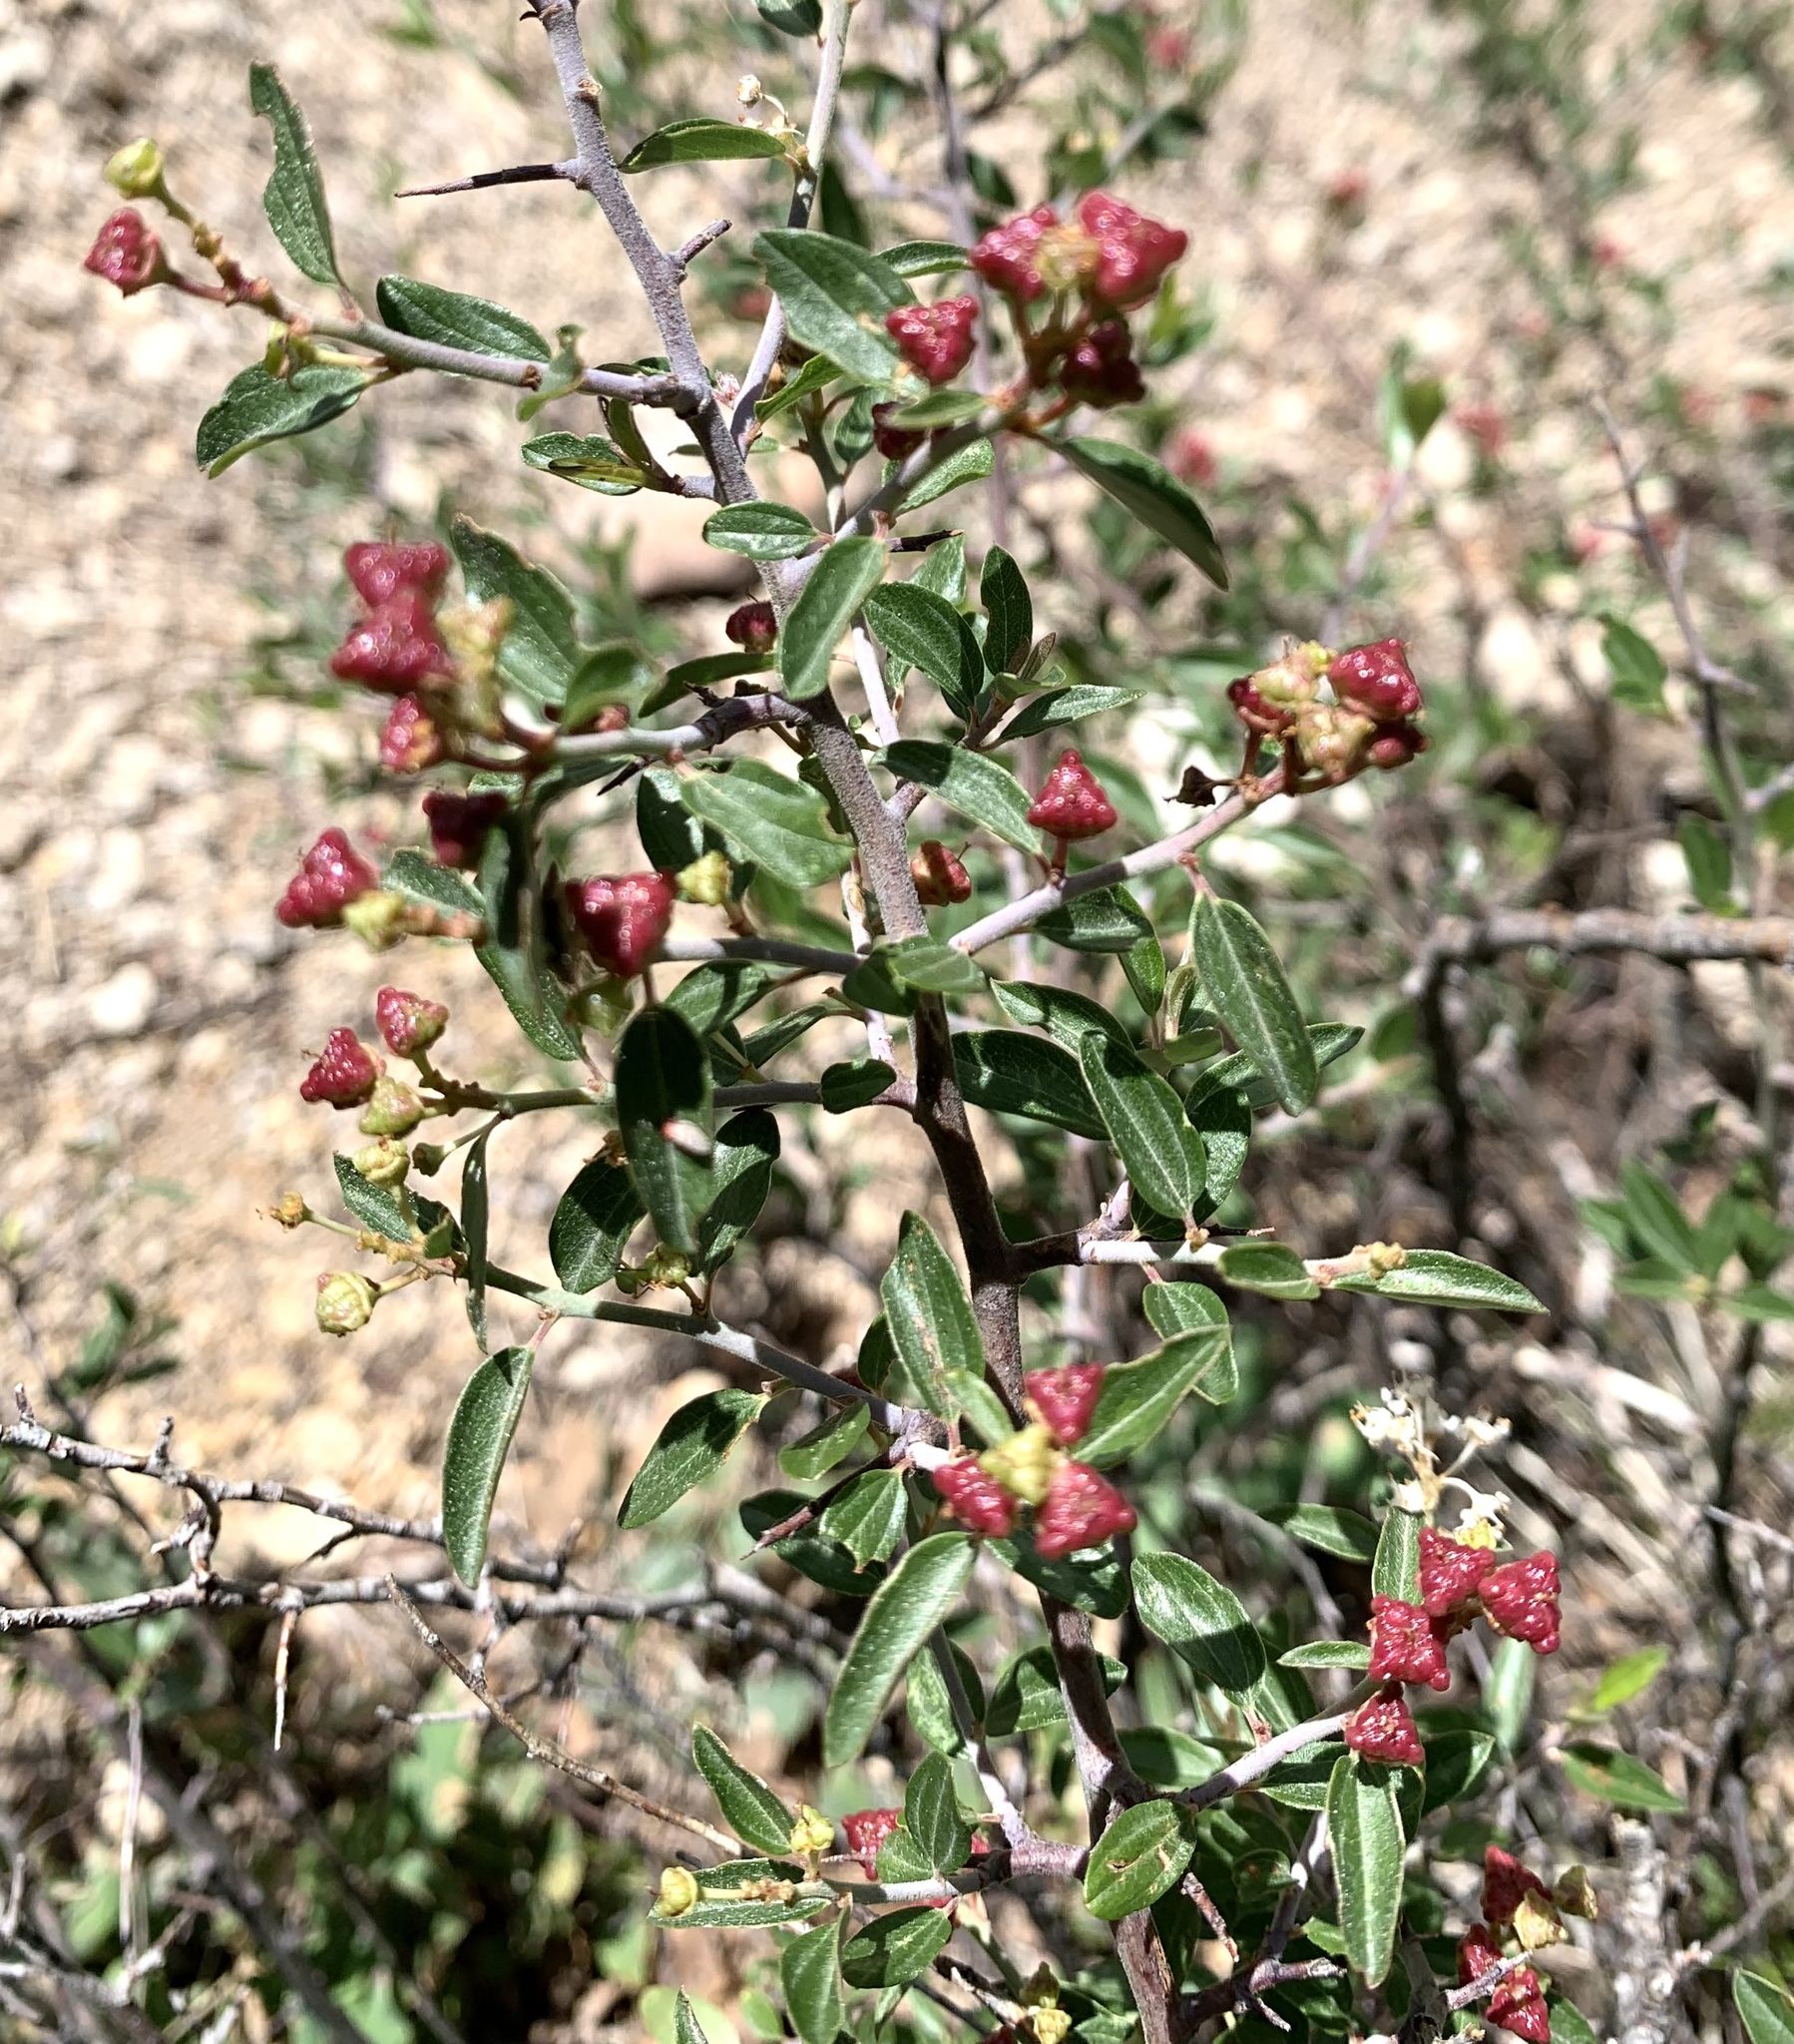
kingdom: Plantae
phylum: Tracheophyta
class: Magnoliopsida
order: Rosales
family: Rhamnaceae
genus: Ceanothus
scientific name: Ceanothus fendleri
